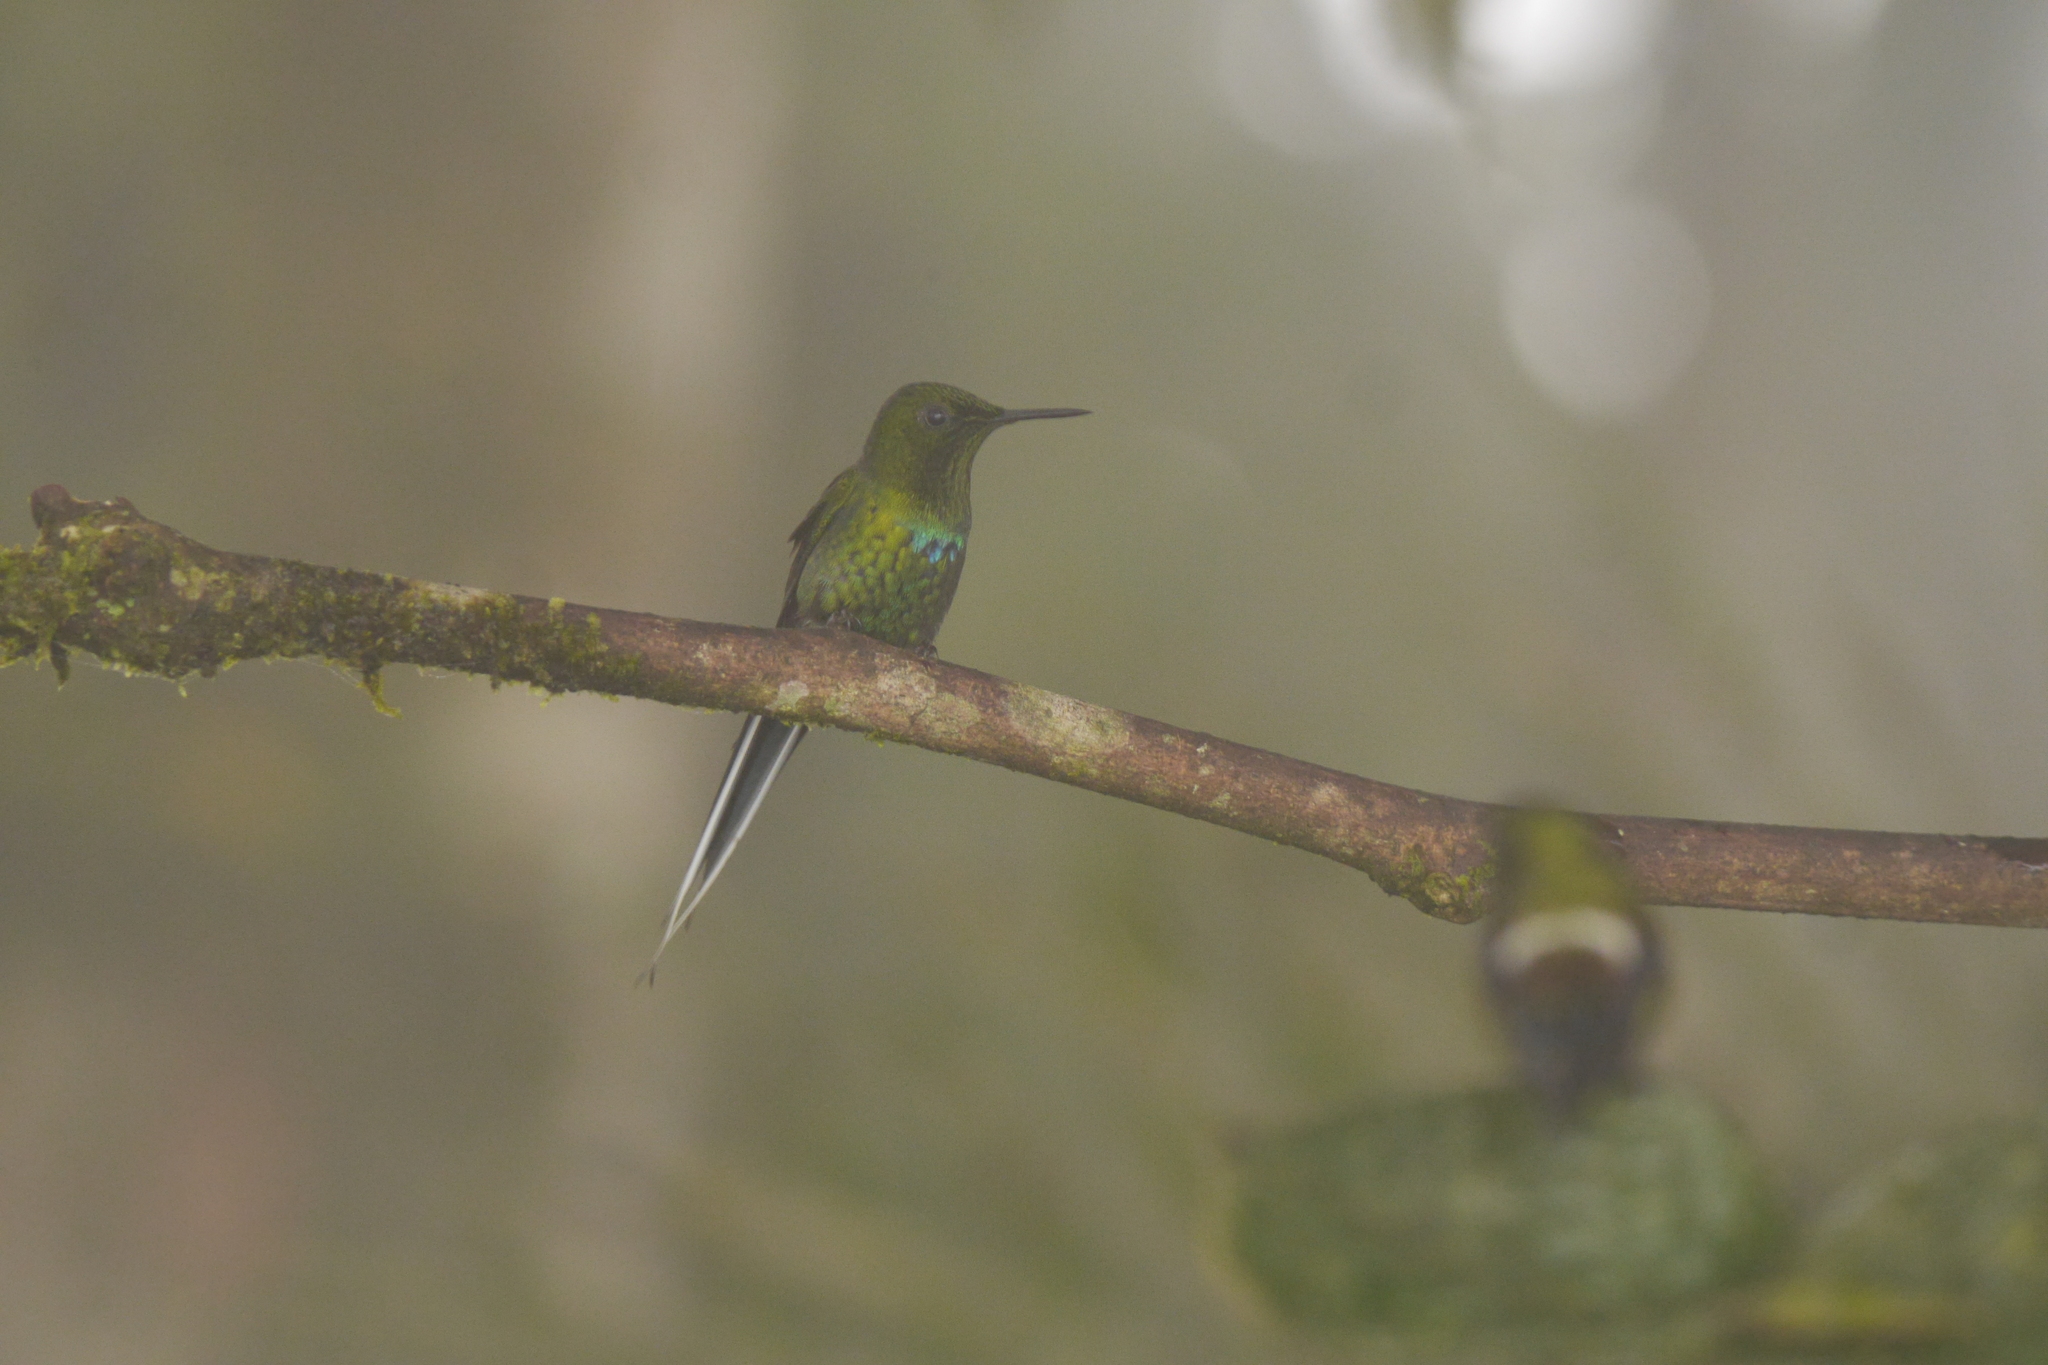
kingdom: Animalia
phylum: Chordata
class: Aves
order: Apodiformes
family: Trochilidae
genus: Discosura
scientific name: Discosura conversii
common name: Green thorntail
